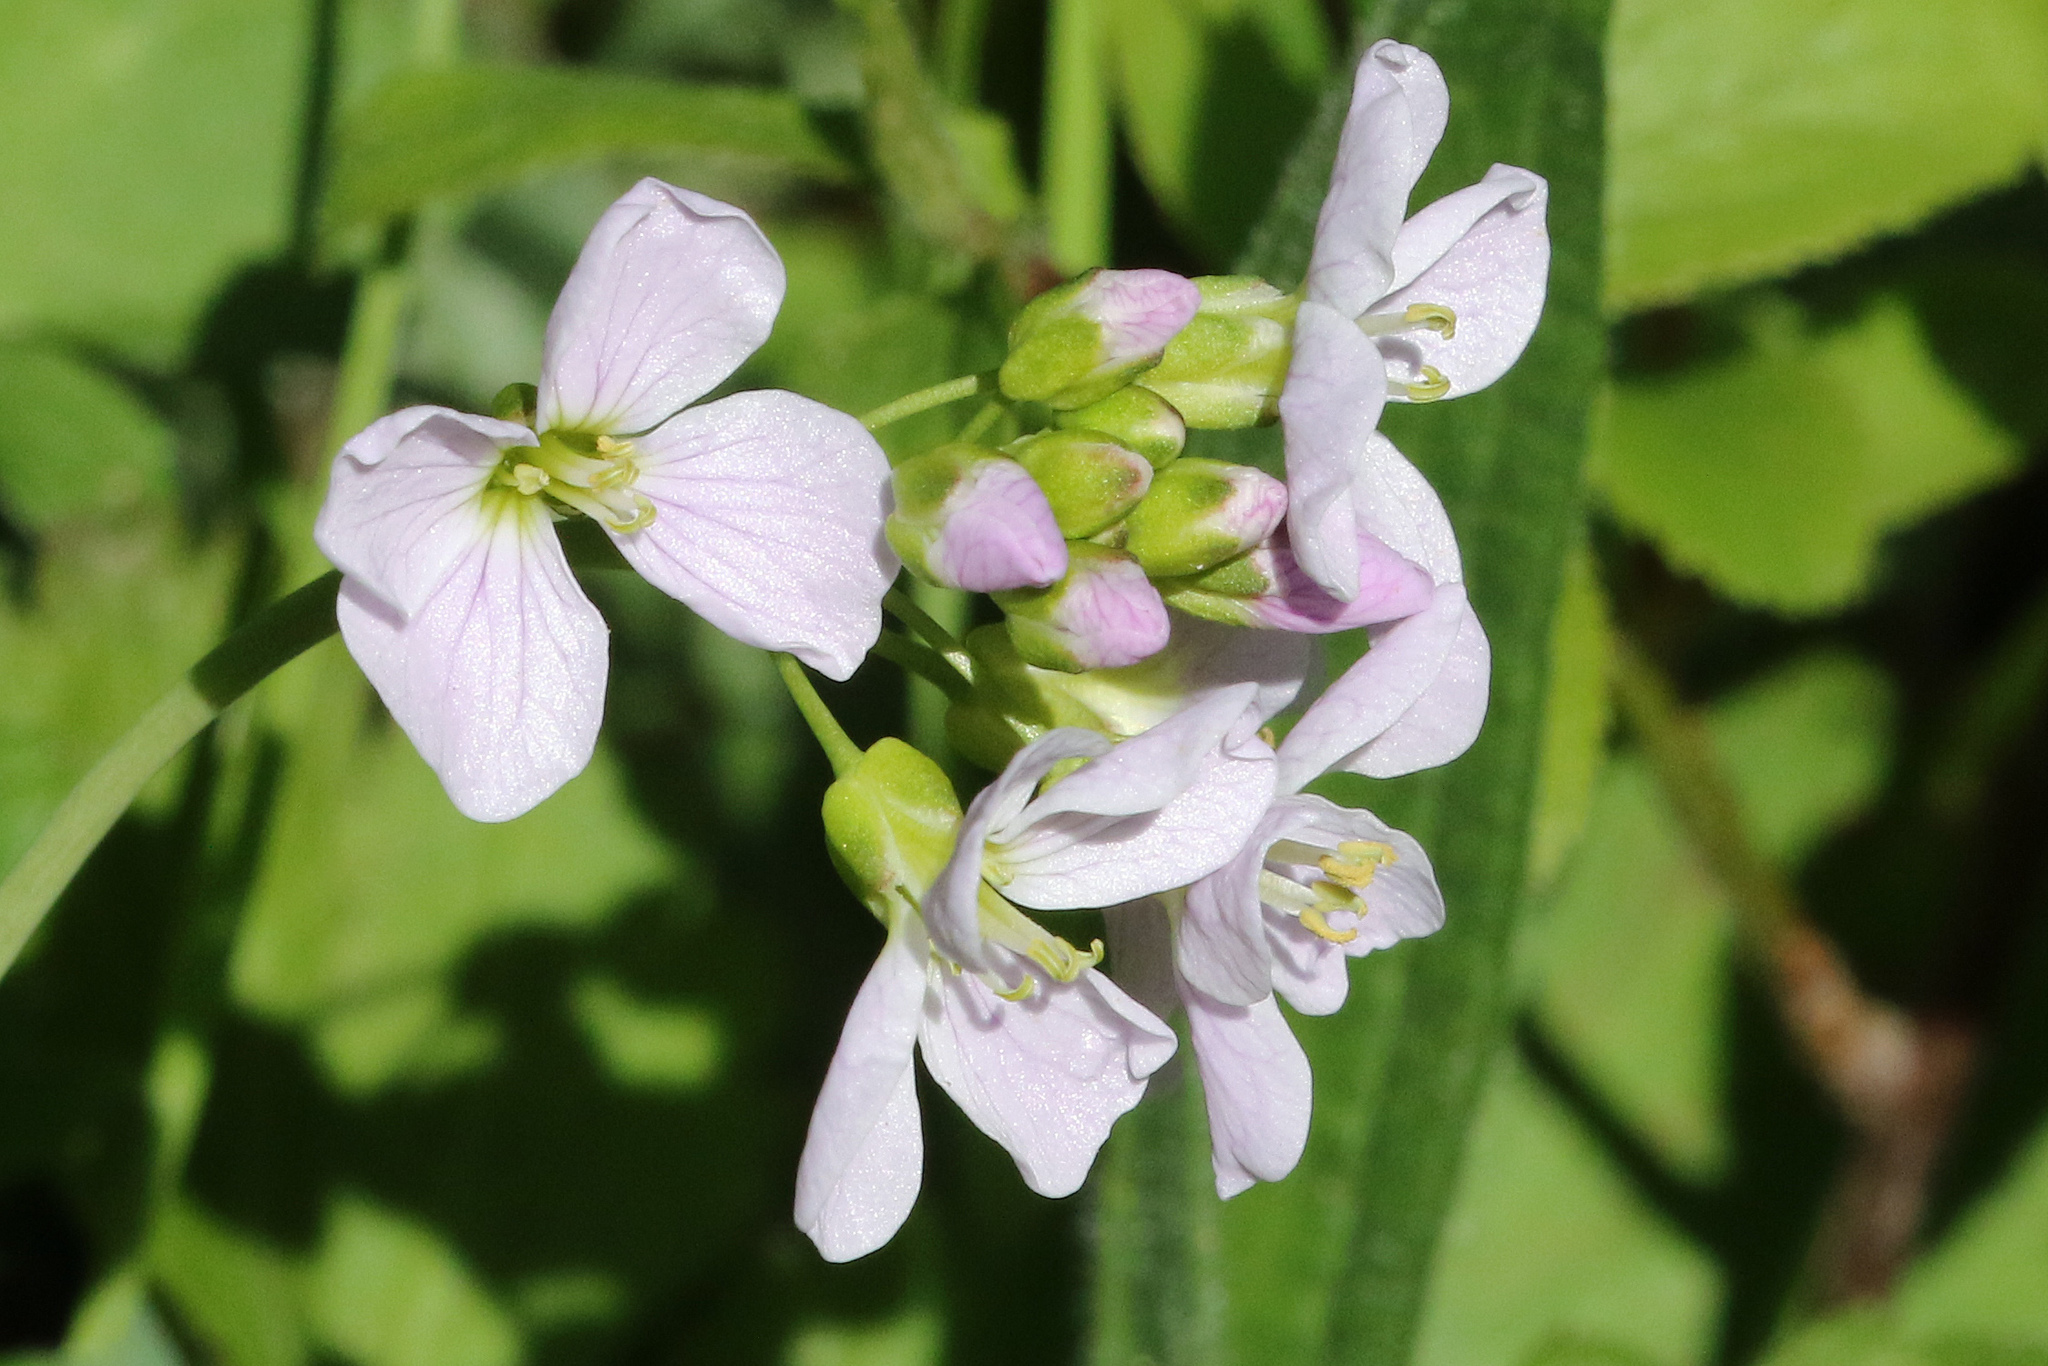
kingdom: Plantae
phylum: Tracheophyta
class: Magnoliopsida
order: Brassicales
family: Brassicaceae
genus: Cardamine
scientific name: Cardamine pratensis
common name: Cuckoo flower
